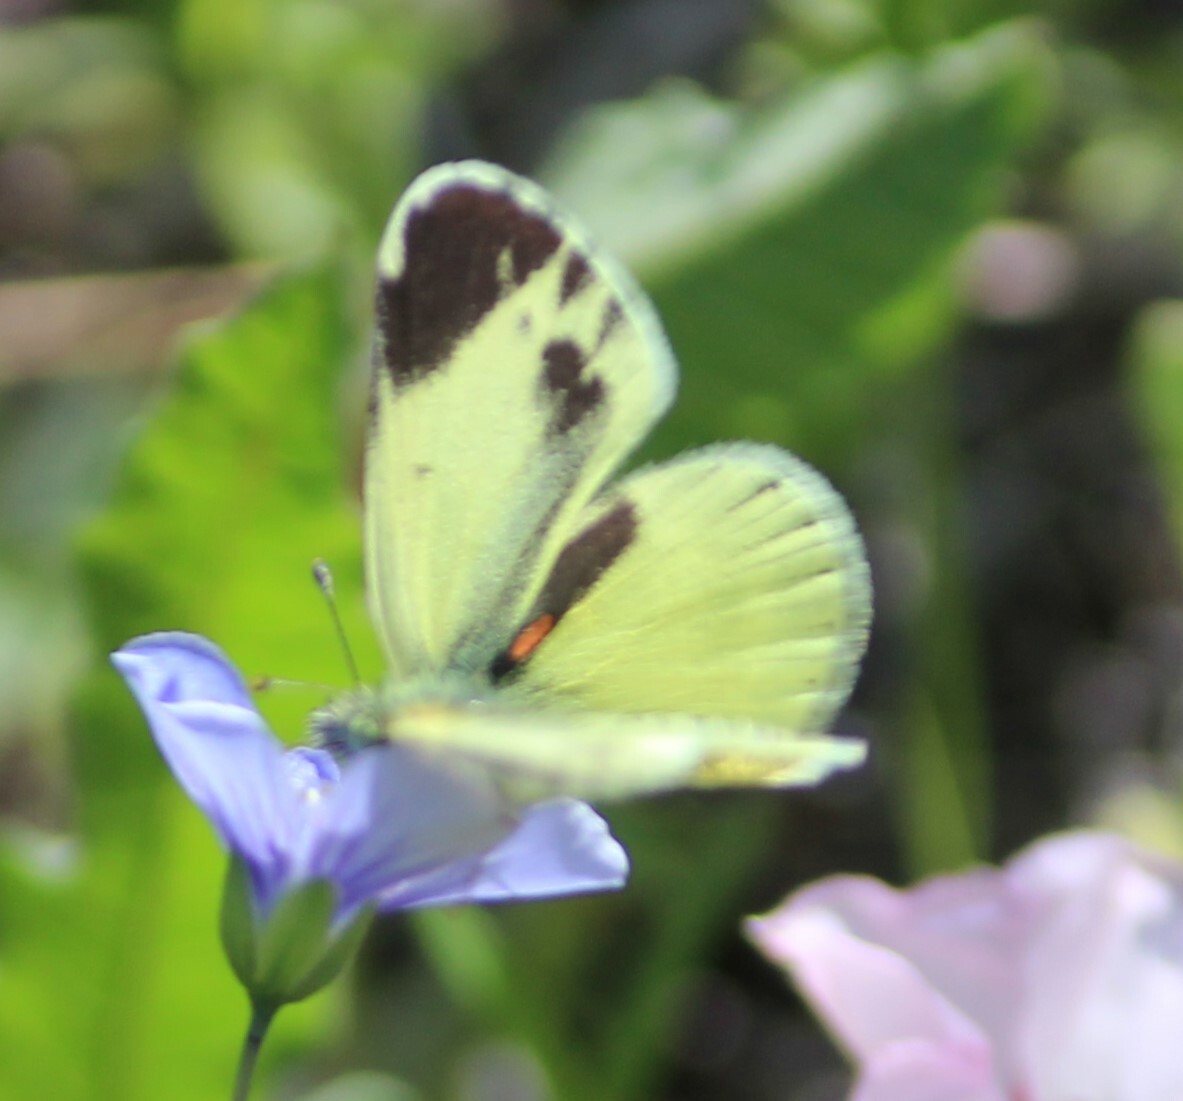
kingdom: Animalia
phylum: Arthropoda
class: Insecta
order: Lepidoptera
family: Pieridae
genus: Nathalis
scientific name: Nathalis iole
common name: Dainty sulphur
